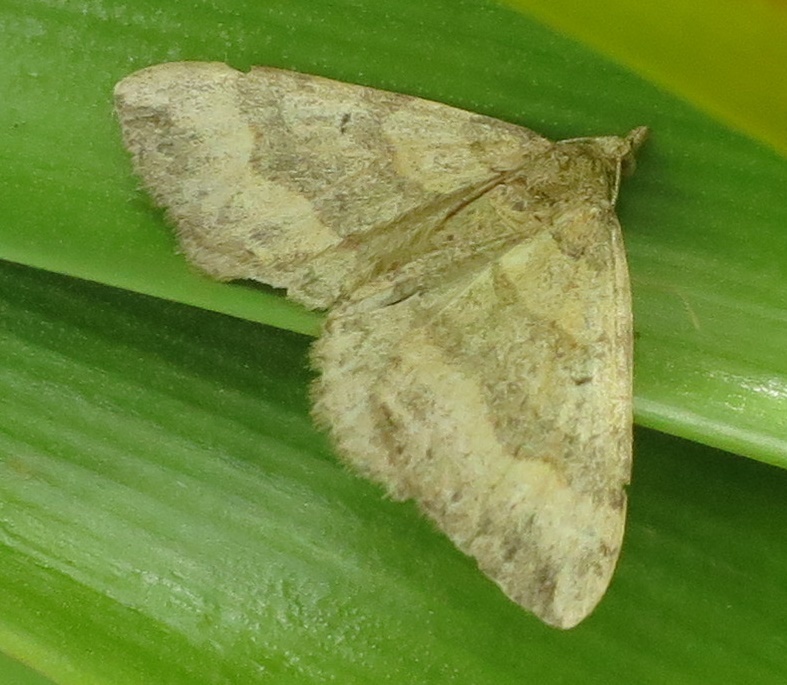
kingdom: Animalia
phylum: Arthropoda
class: Insecta
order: Lepidoptera
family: Geometridae
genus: Epyaxa
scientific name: Epyaxa rosearia
